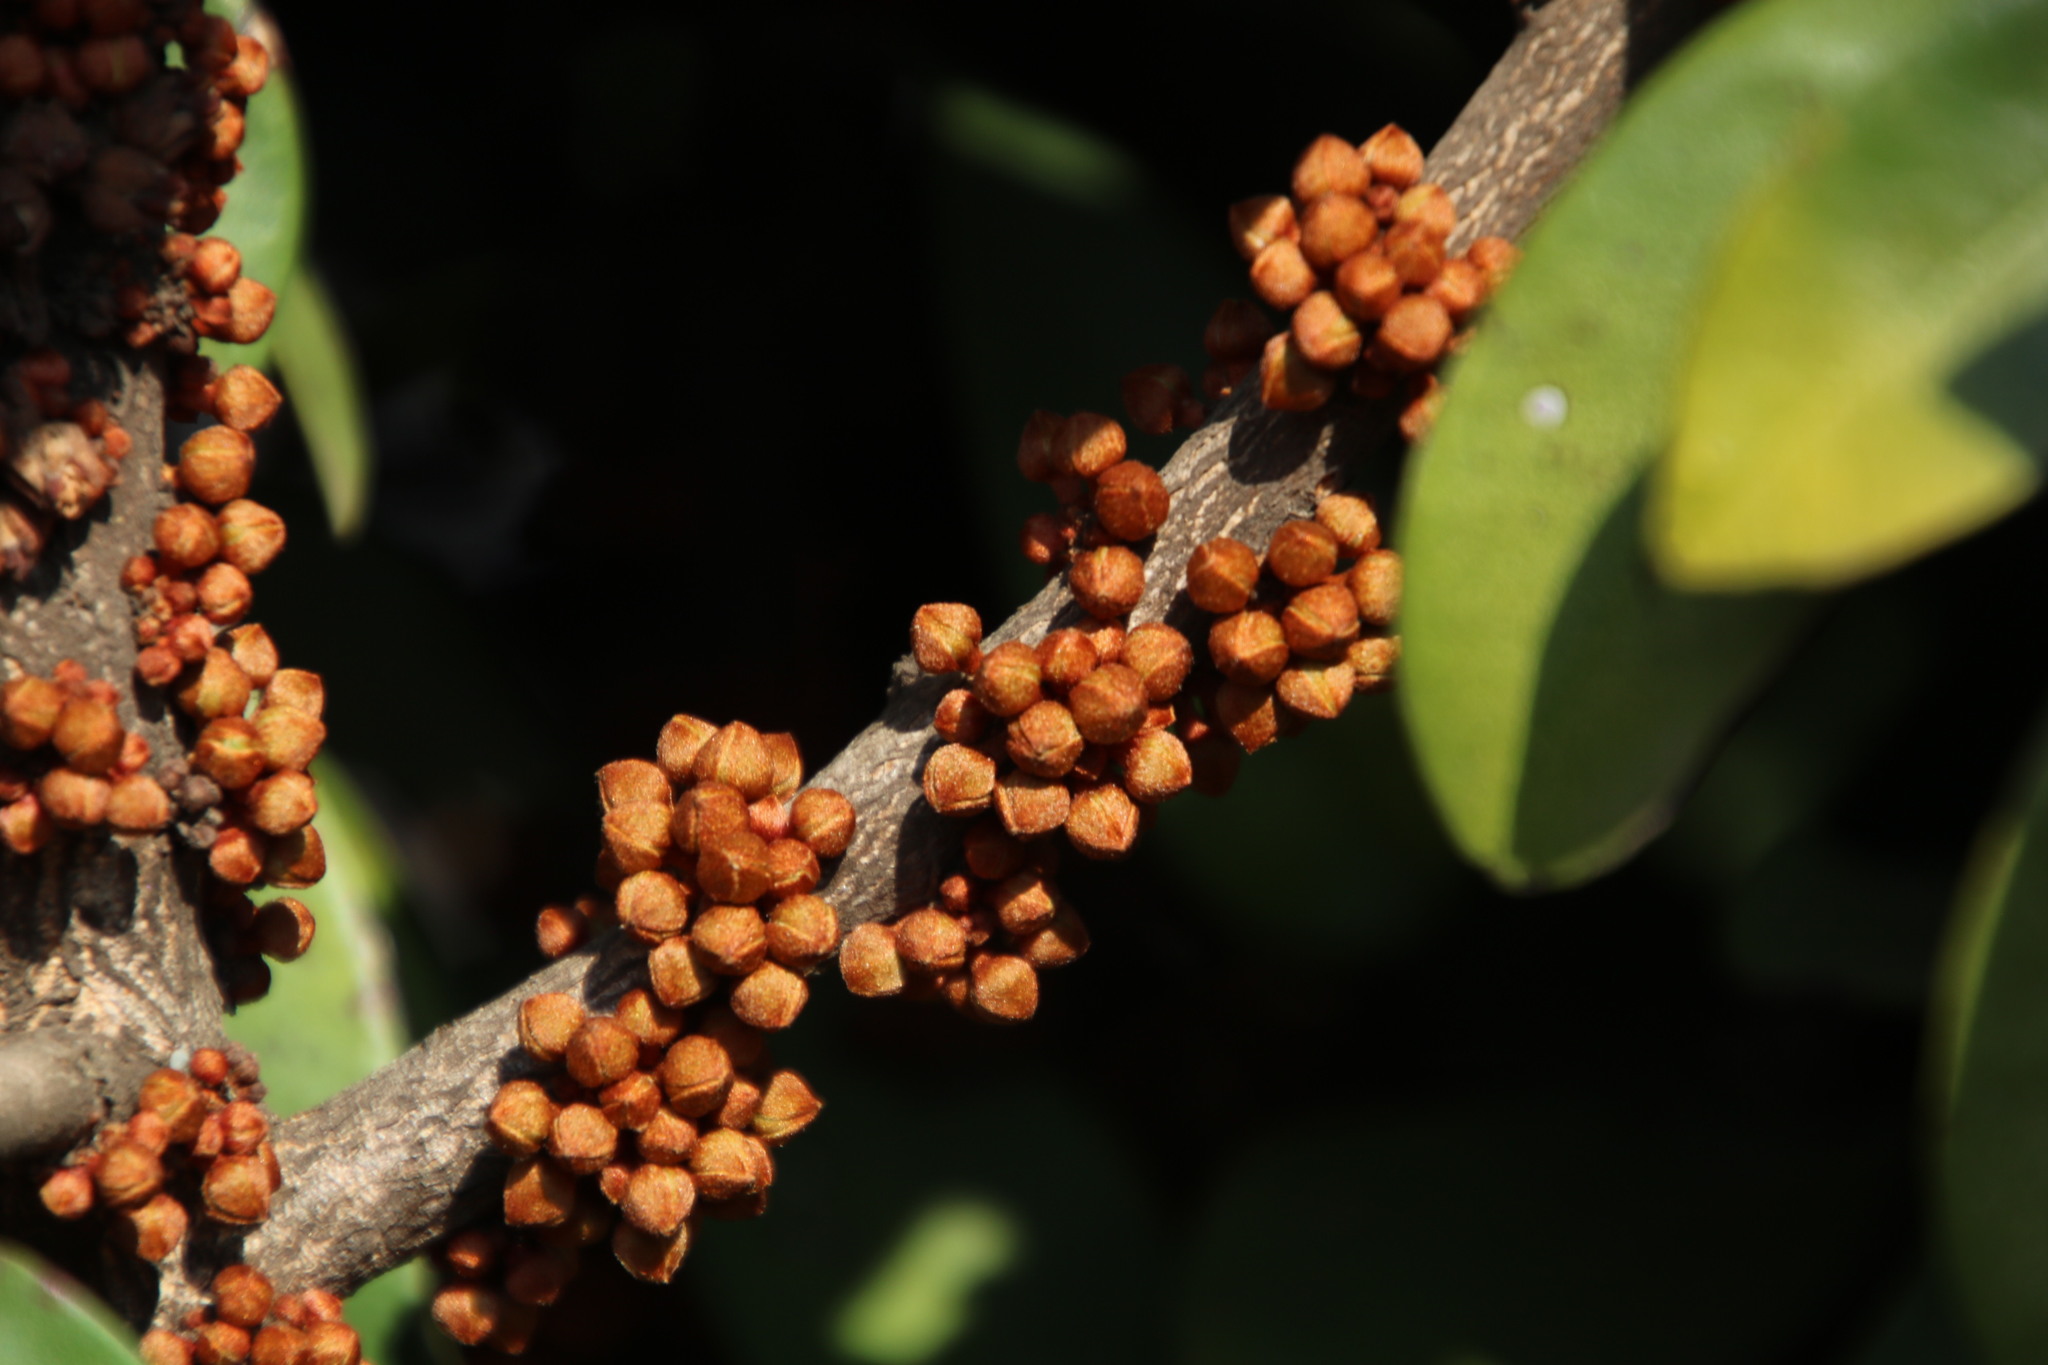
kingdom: Plantae
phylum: Tracheophyta
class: Magnoliopsida
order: Ericales
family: Sapotaceae
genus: Englerophytum
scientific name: Englerophytum magalismontanum
